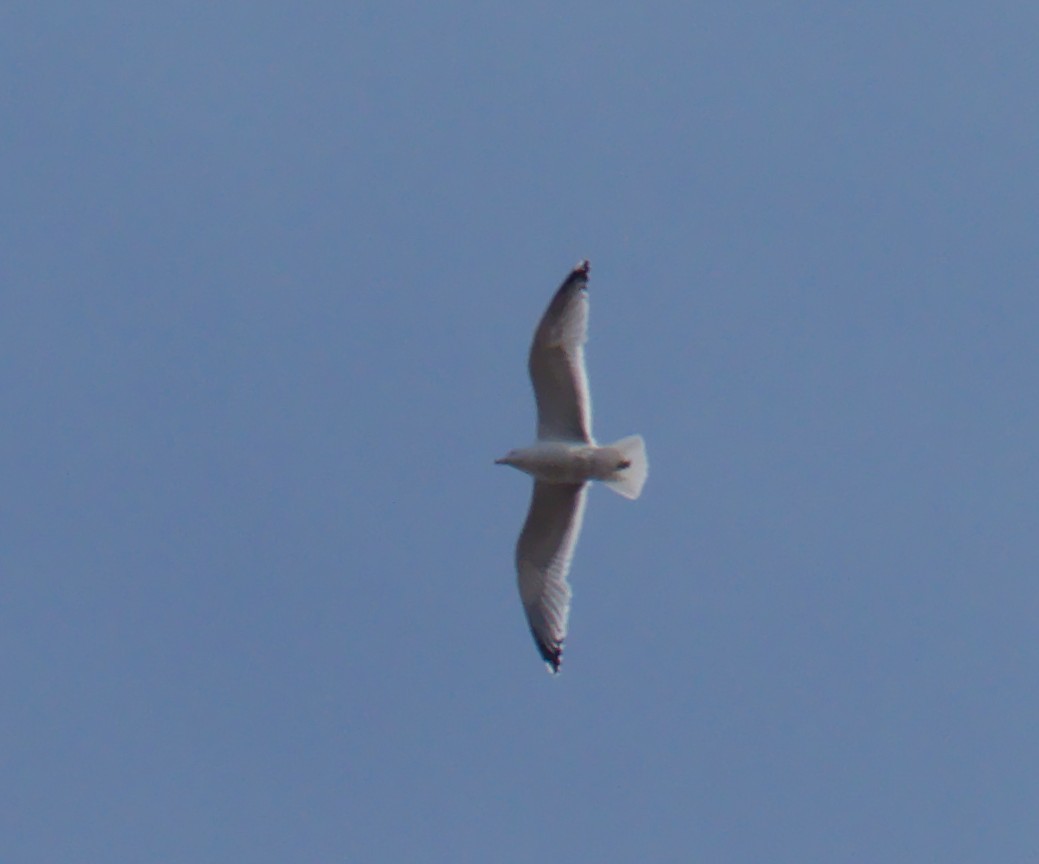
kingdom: Animalia
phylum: Chordata
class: Aves
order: Charadriiformes
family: Laridae
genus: Larus
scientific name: Larus canus
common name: Mew gull
